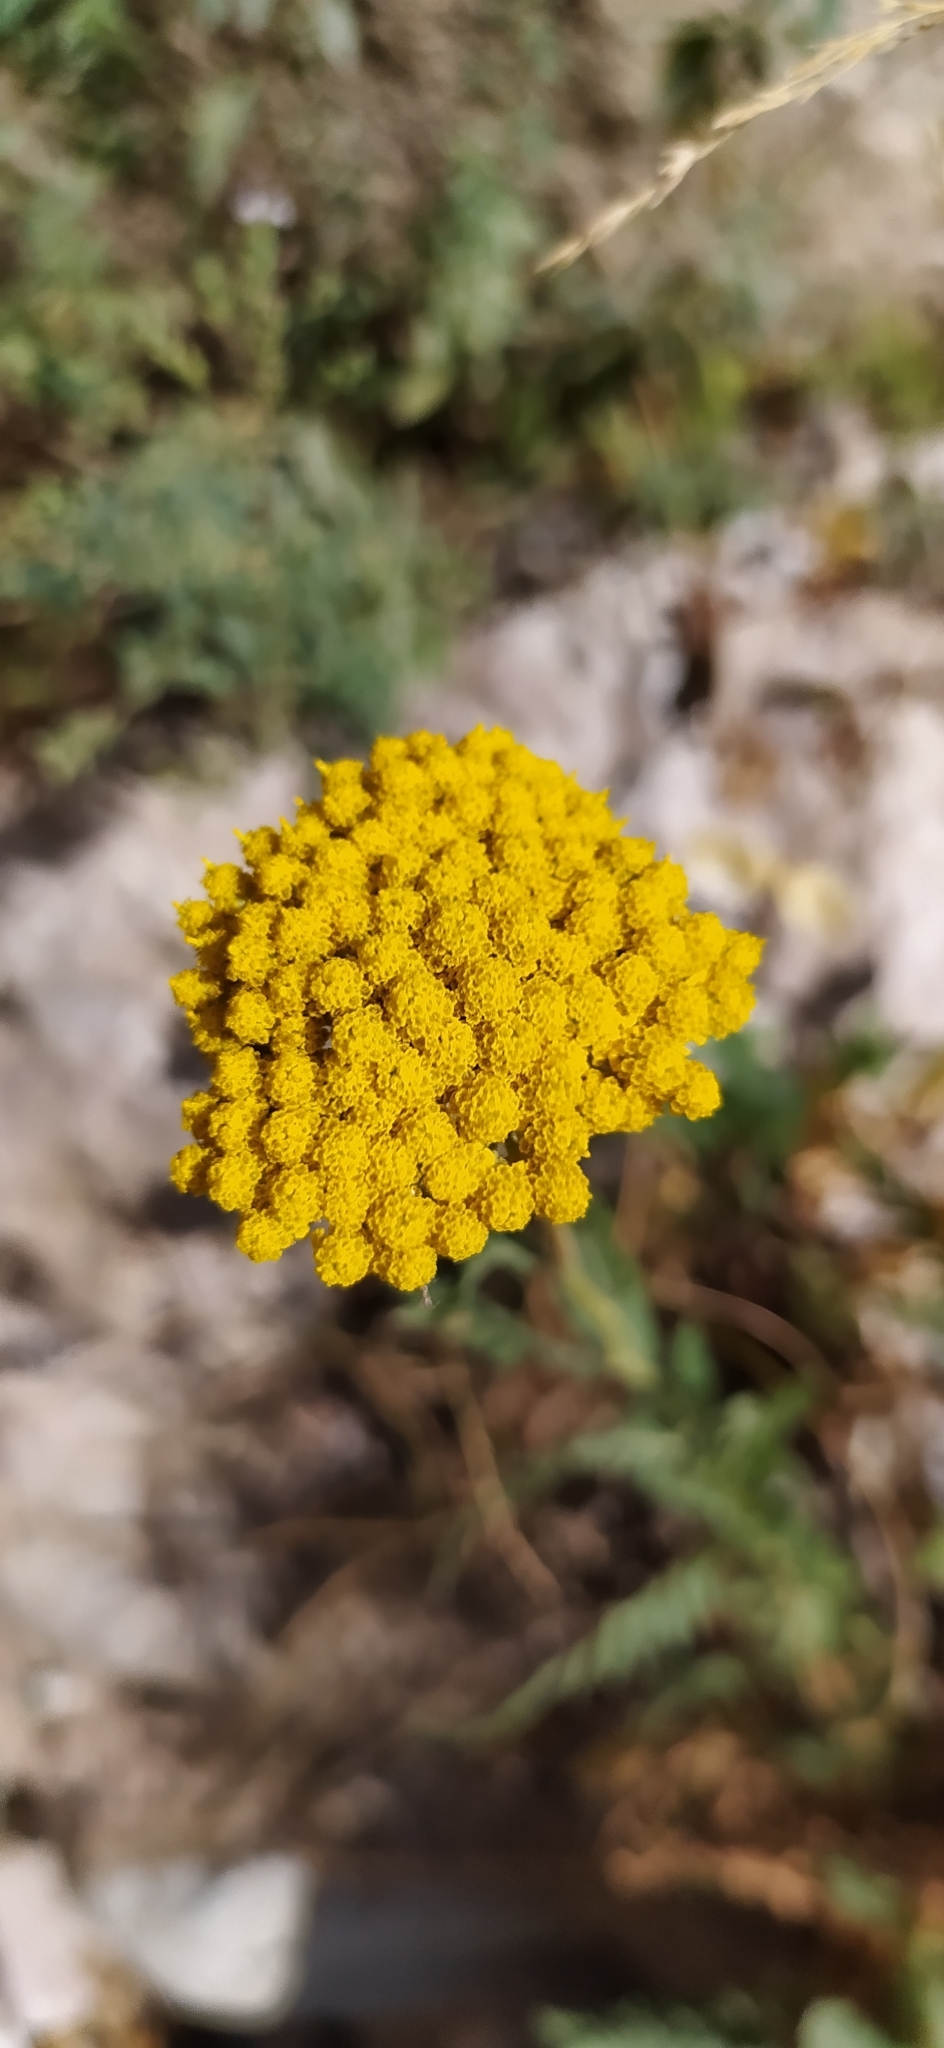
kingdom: Plantae
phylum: Tracheophyta
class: Magnoliopsida
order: Asterales
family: Asteraceae
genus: Achillea
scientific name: Achillea filipendulina
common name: Fernleaf yarrow
